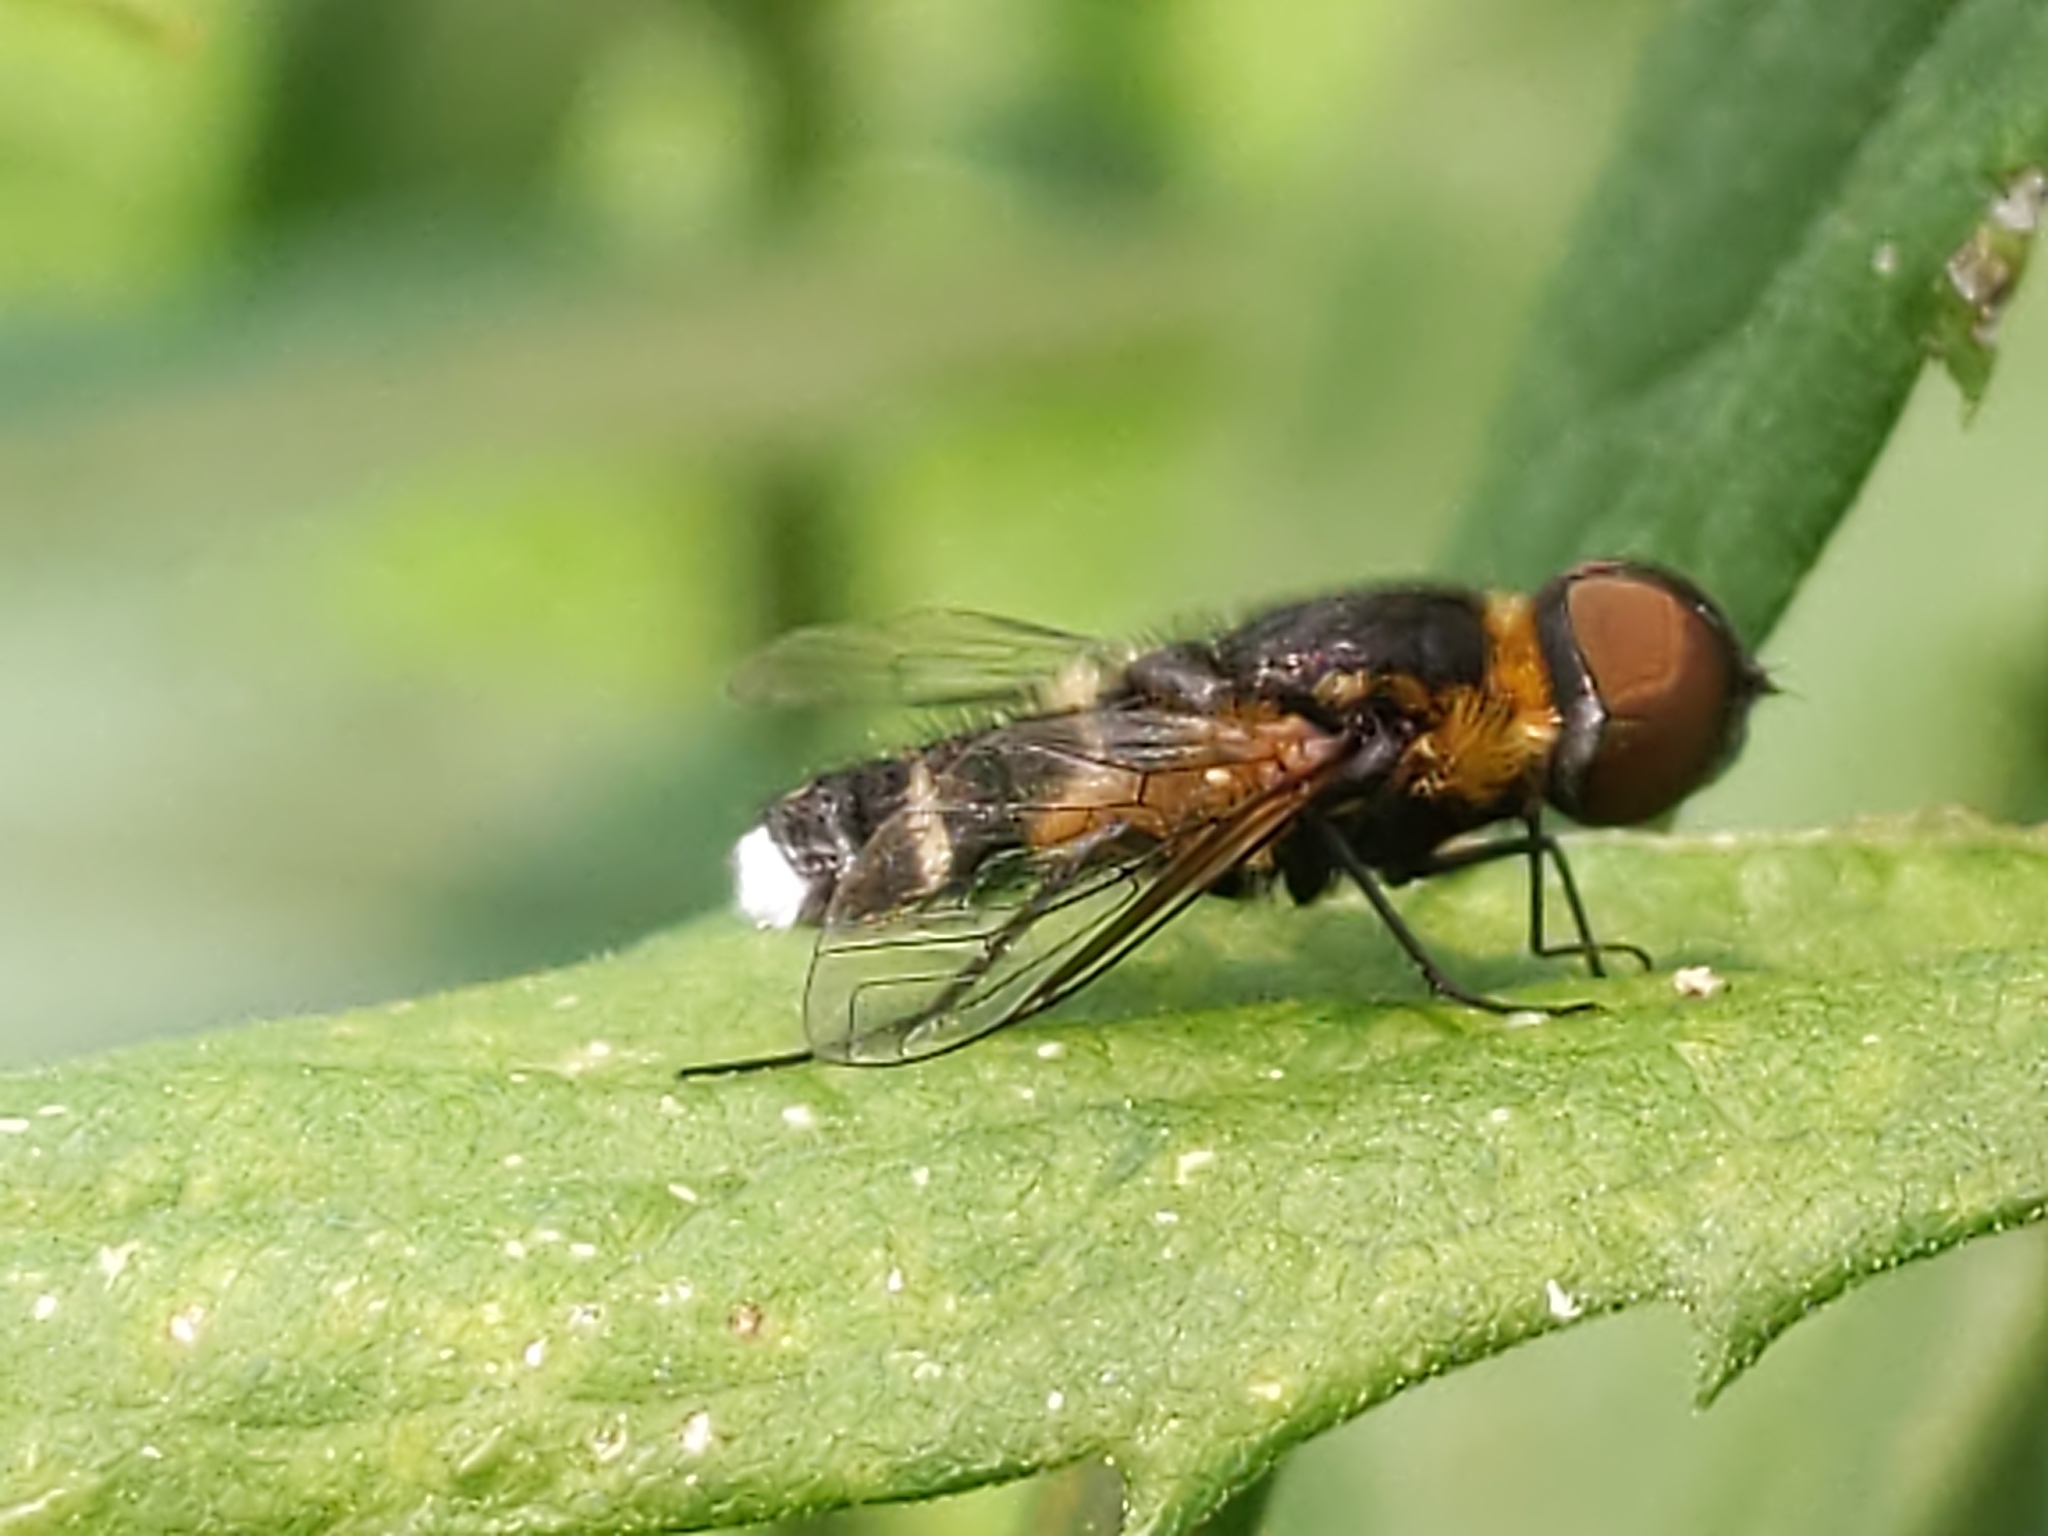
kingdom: Animalia
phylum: Arthropoda
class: Insecta
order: Diptera
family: Bombyliidae
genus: Villa
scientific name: Villa
